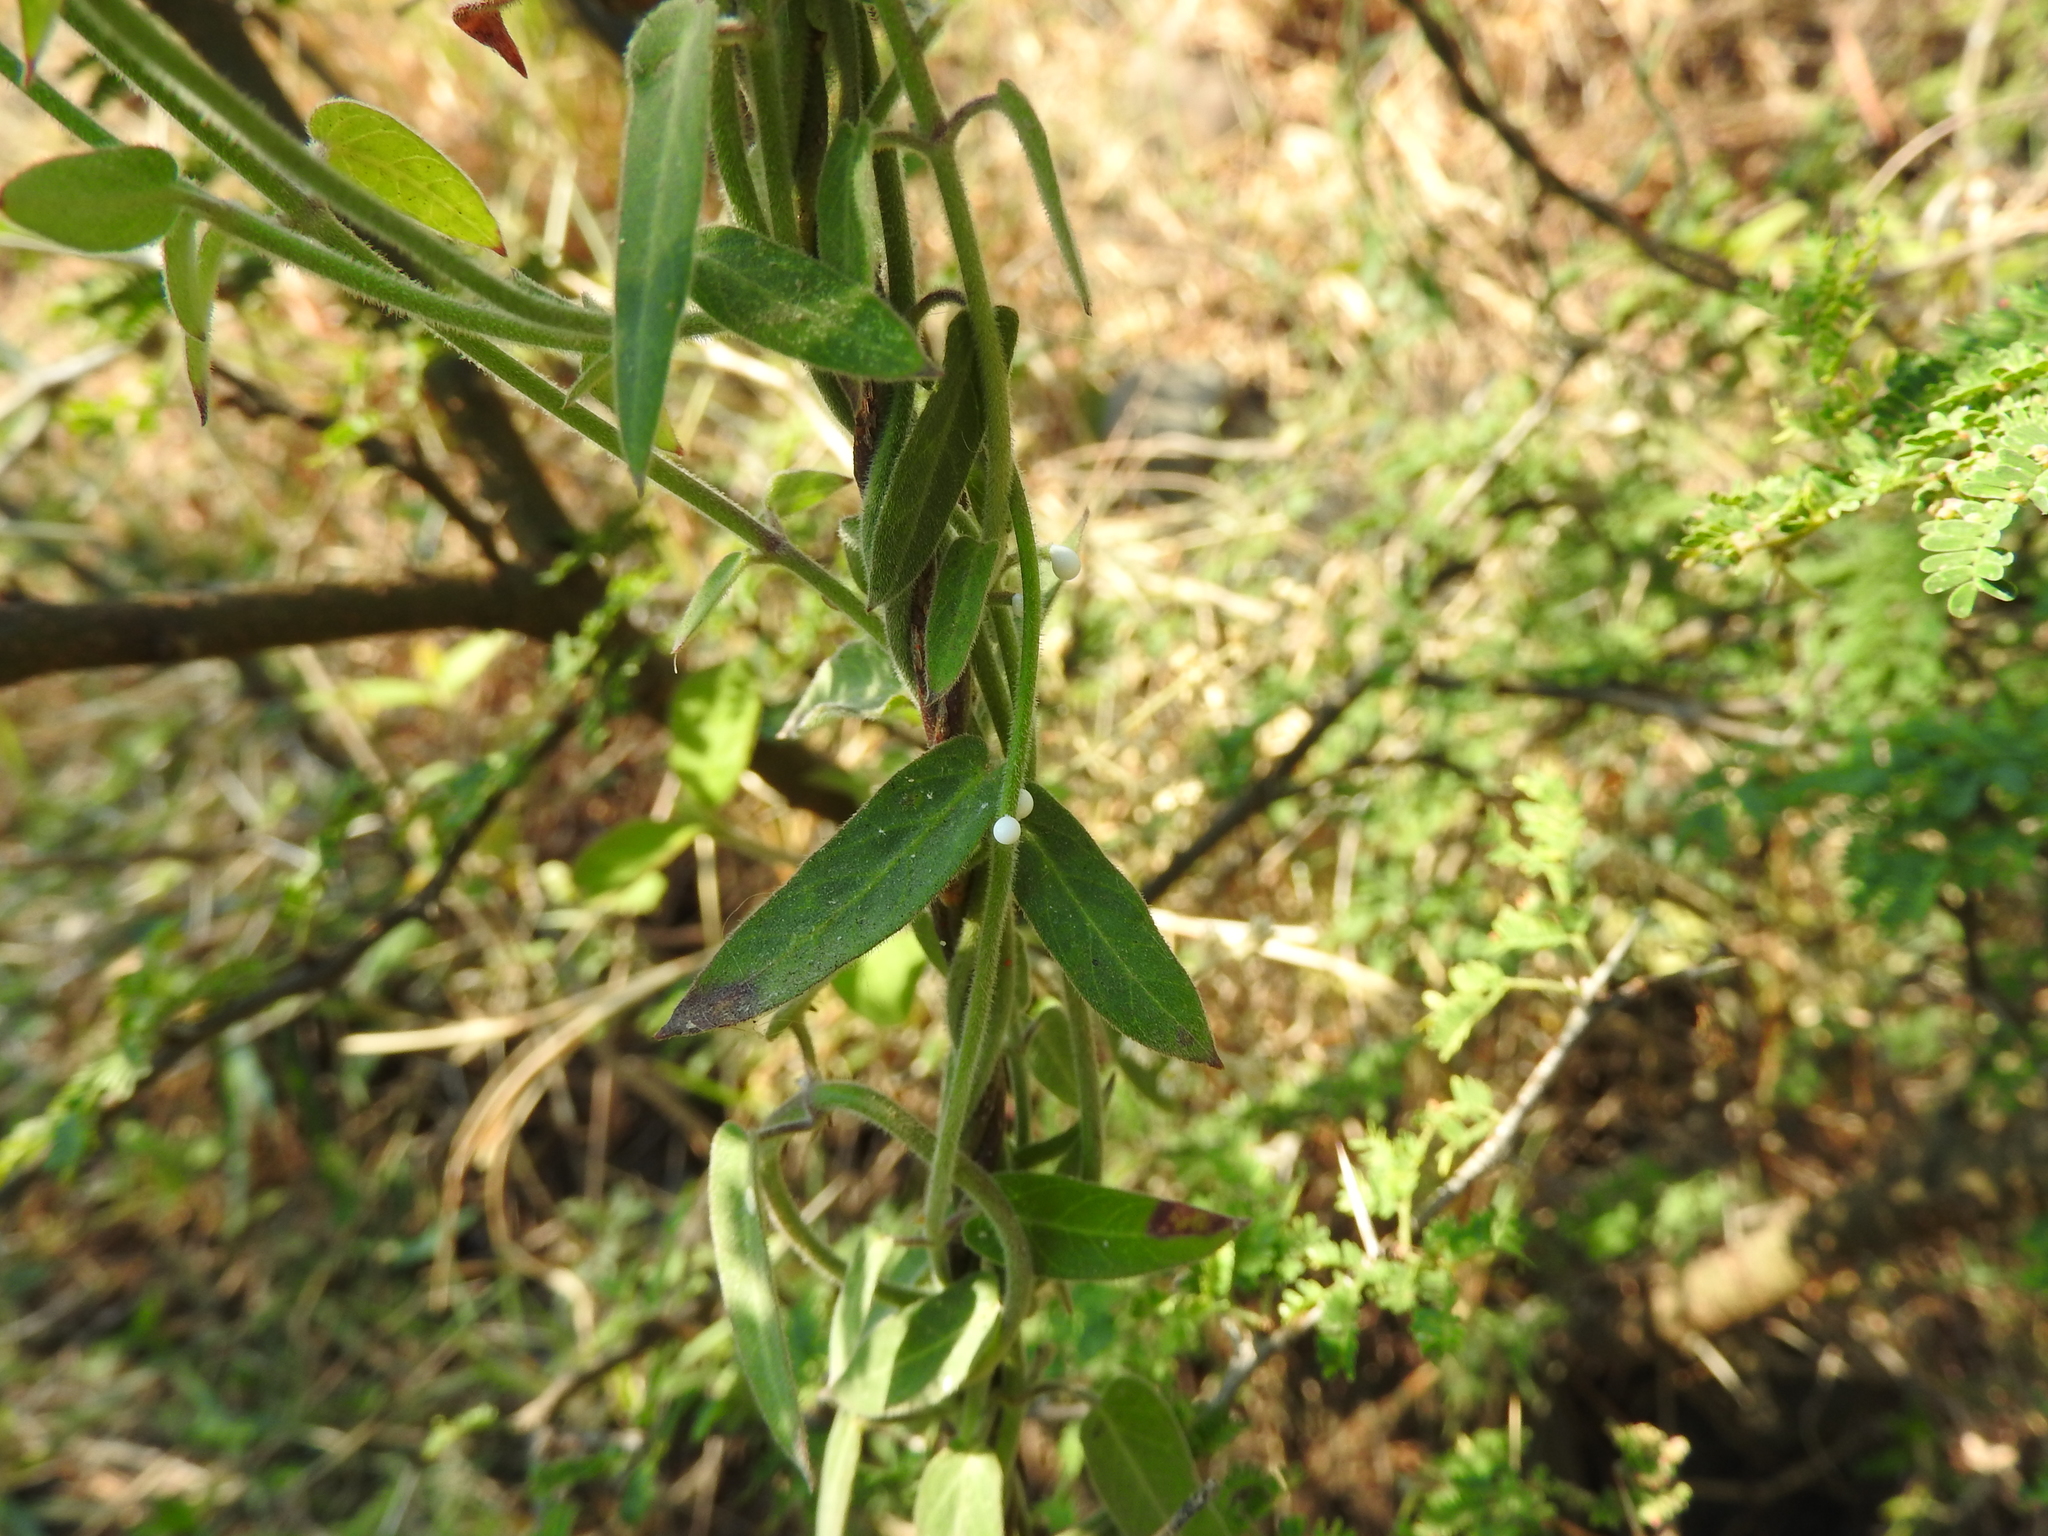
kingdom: Plantae
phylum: Tracheophyta
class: Magnoliopsida
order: Gentianales
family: Apocynaceae
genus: Funastrum
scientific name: Funastrum elegans
